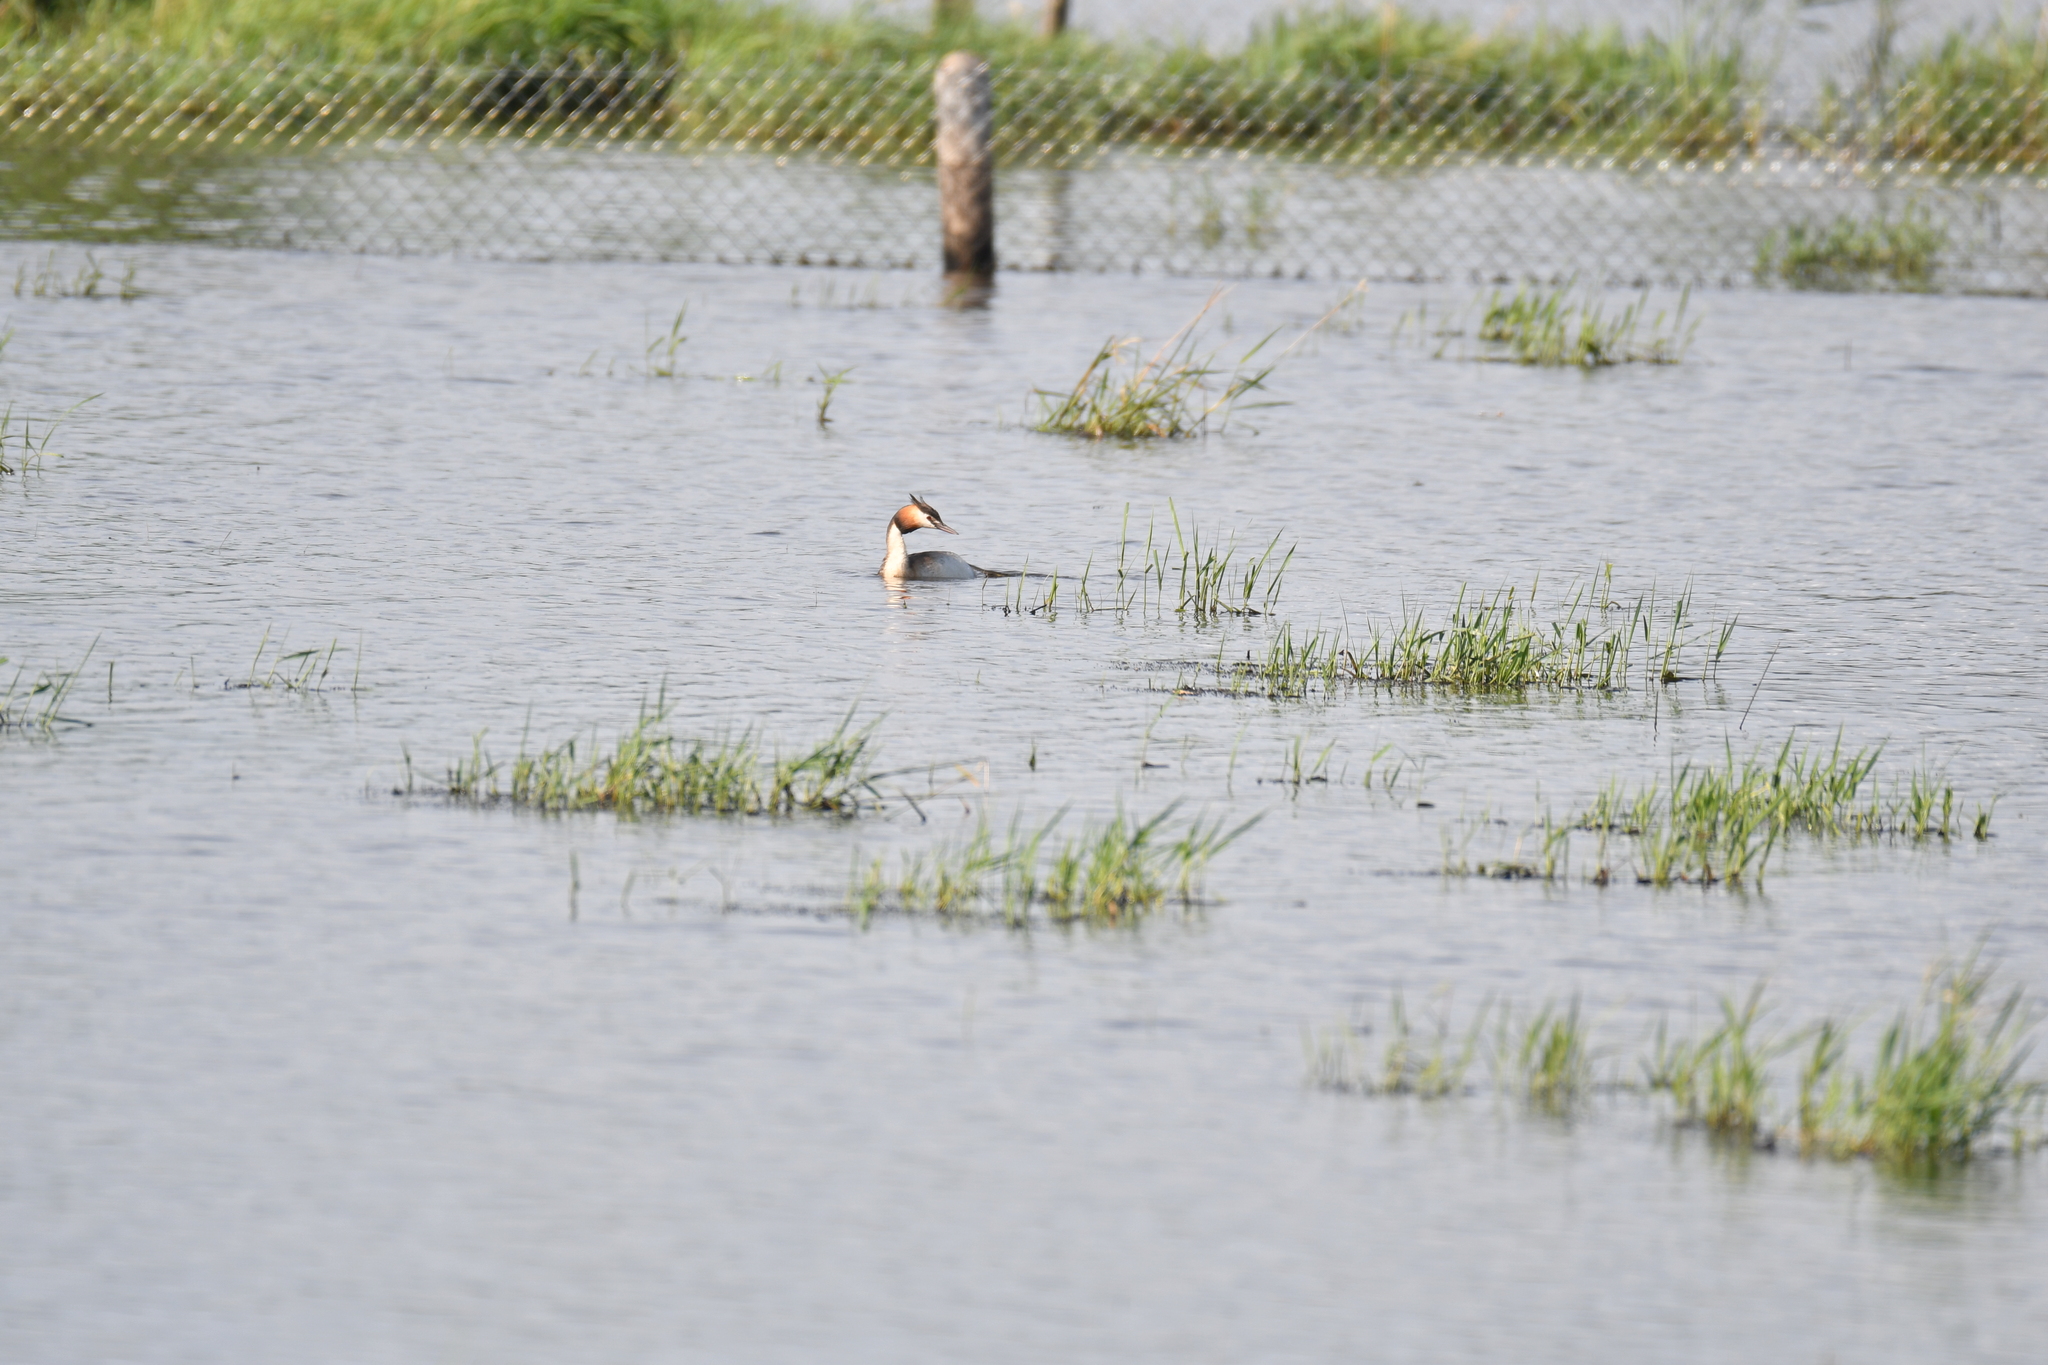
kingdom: Animalia
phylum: Chordata
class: Aves
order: Podicipediformes
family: Podicipedidae
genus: Podiceps
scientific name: Podiceps cristatus
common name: Great crested grebe
